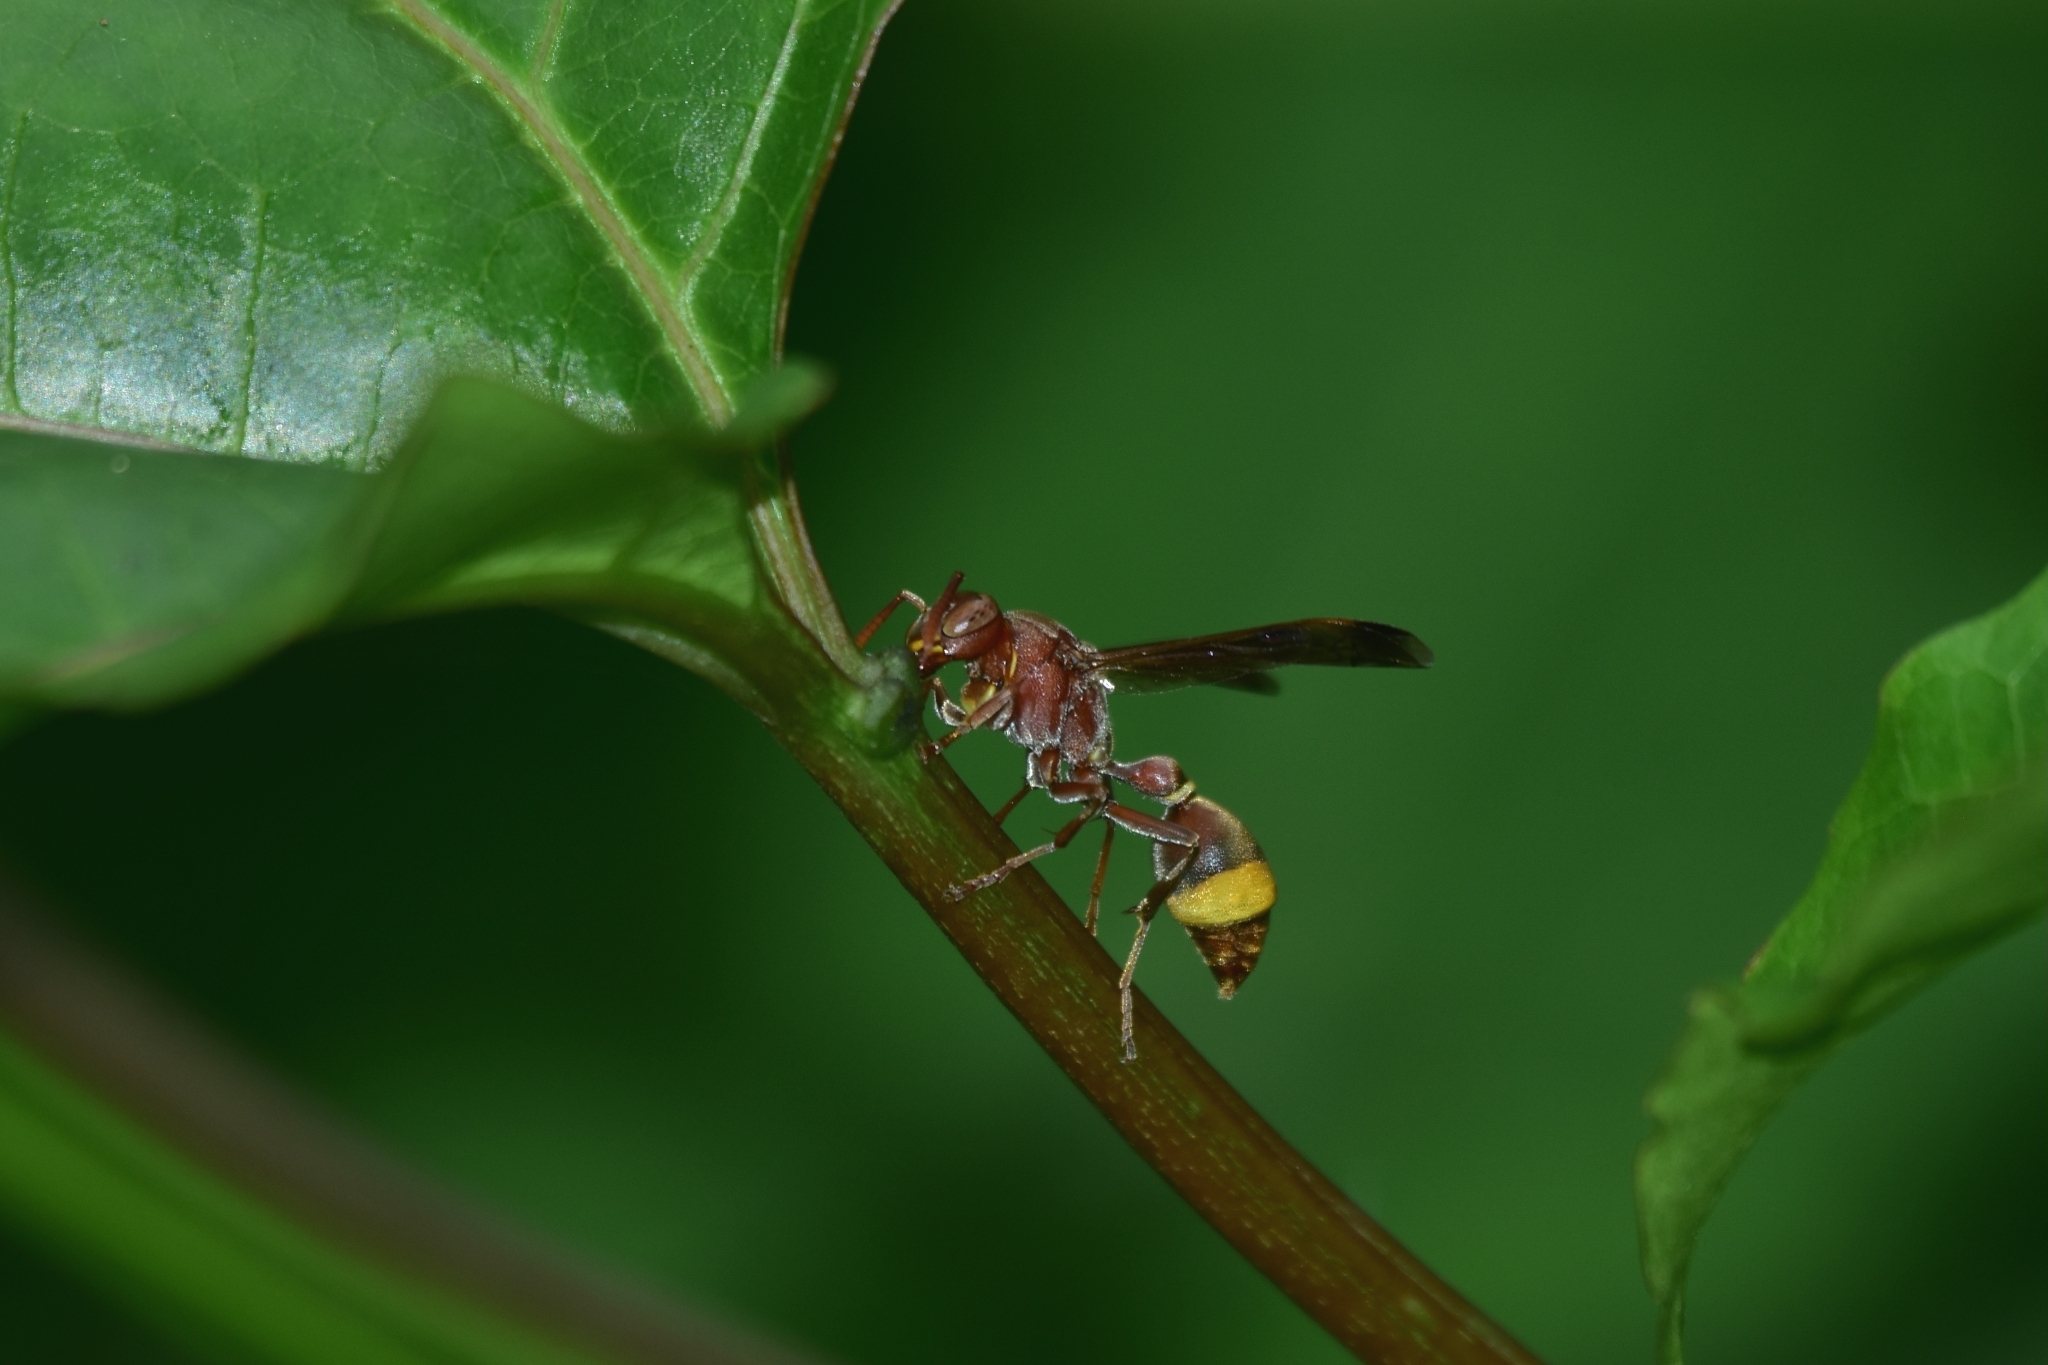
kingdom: Animalia
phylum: Arthropoda
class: Insecta
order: Hymenoptera
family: Vespidae
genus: Ropalidia
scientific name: Ropalidia
